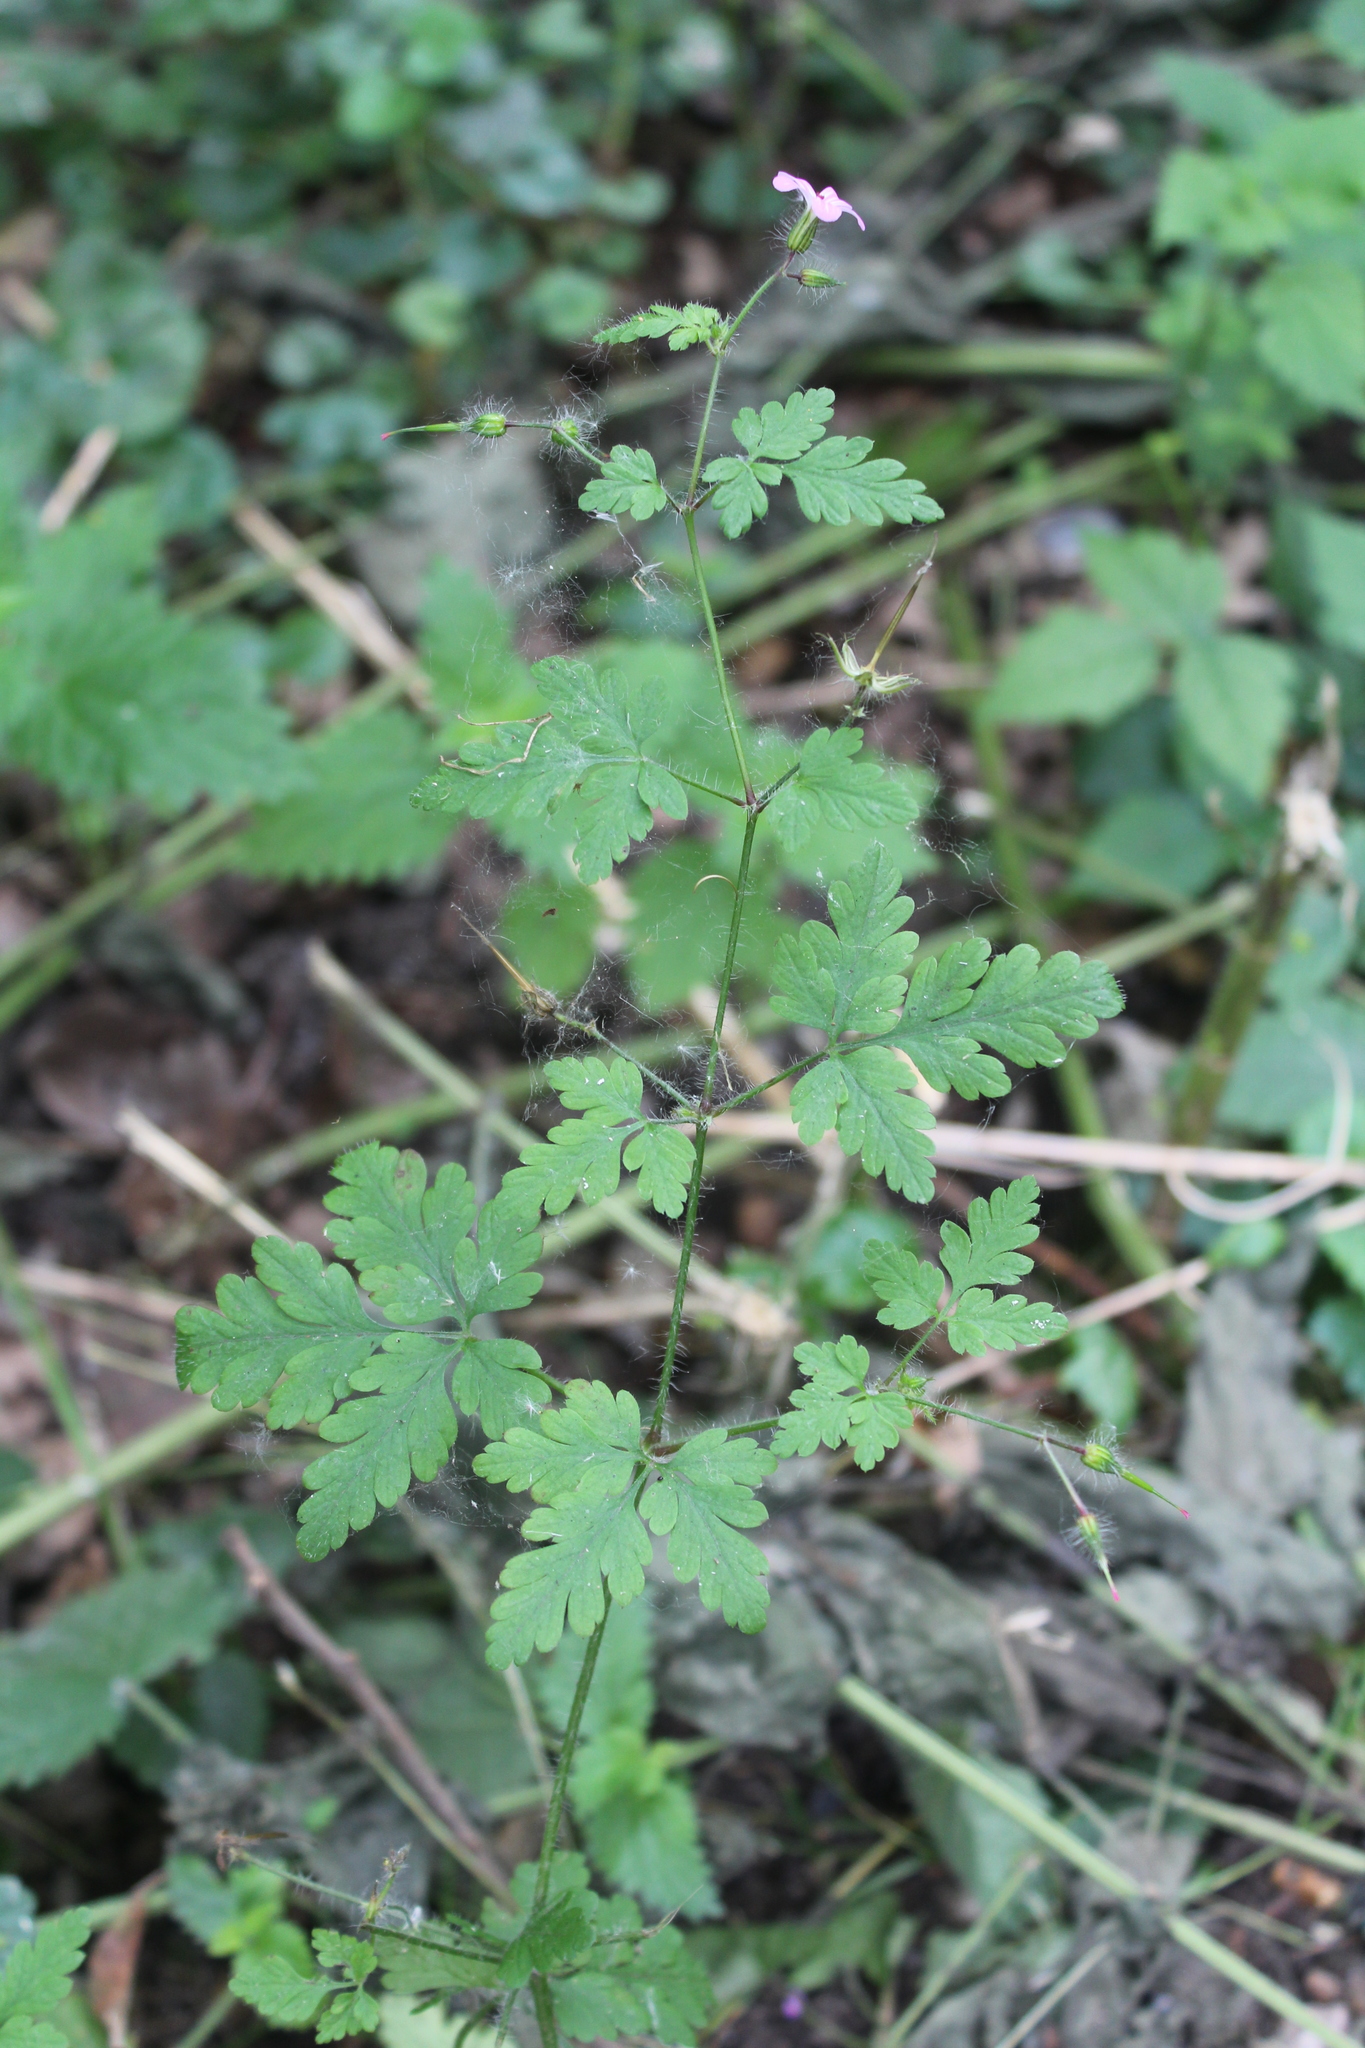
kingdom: Plantae
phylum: Tracheophyta
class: Magnoliopsida
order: Geraniales
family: Geraniaceae
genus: Geranium
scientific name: Geranium robertianum
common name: Herb-robert
